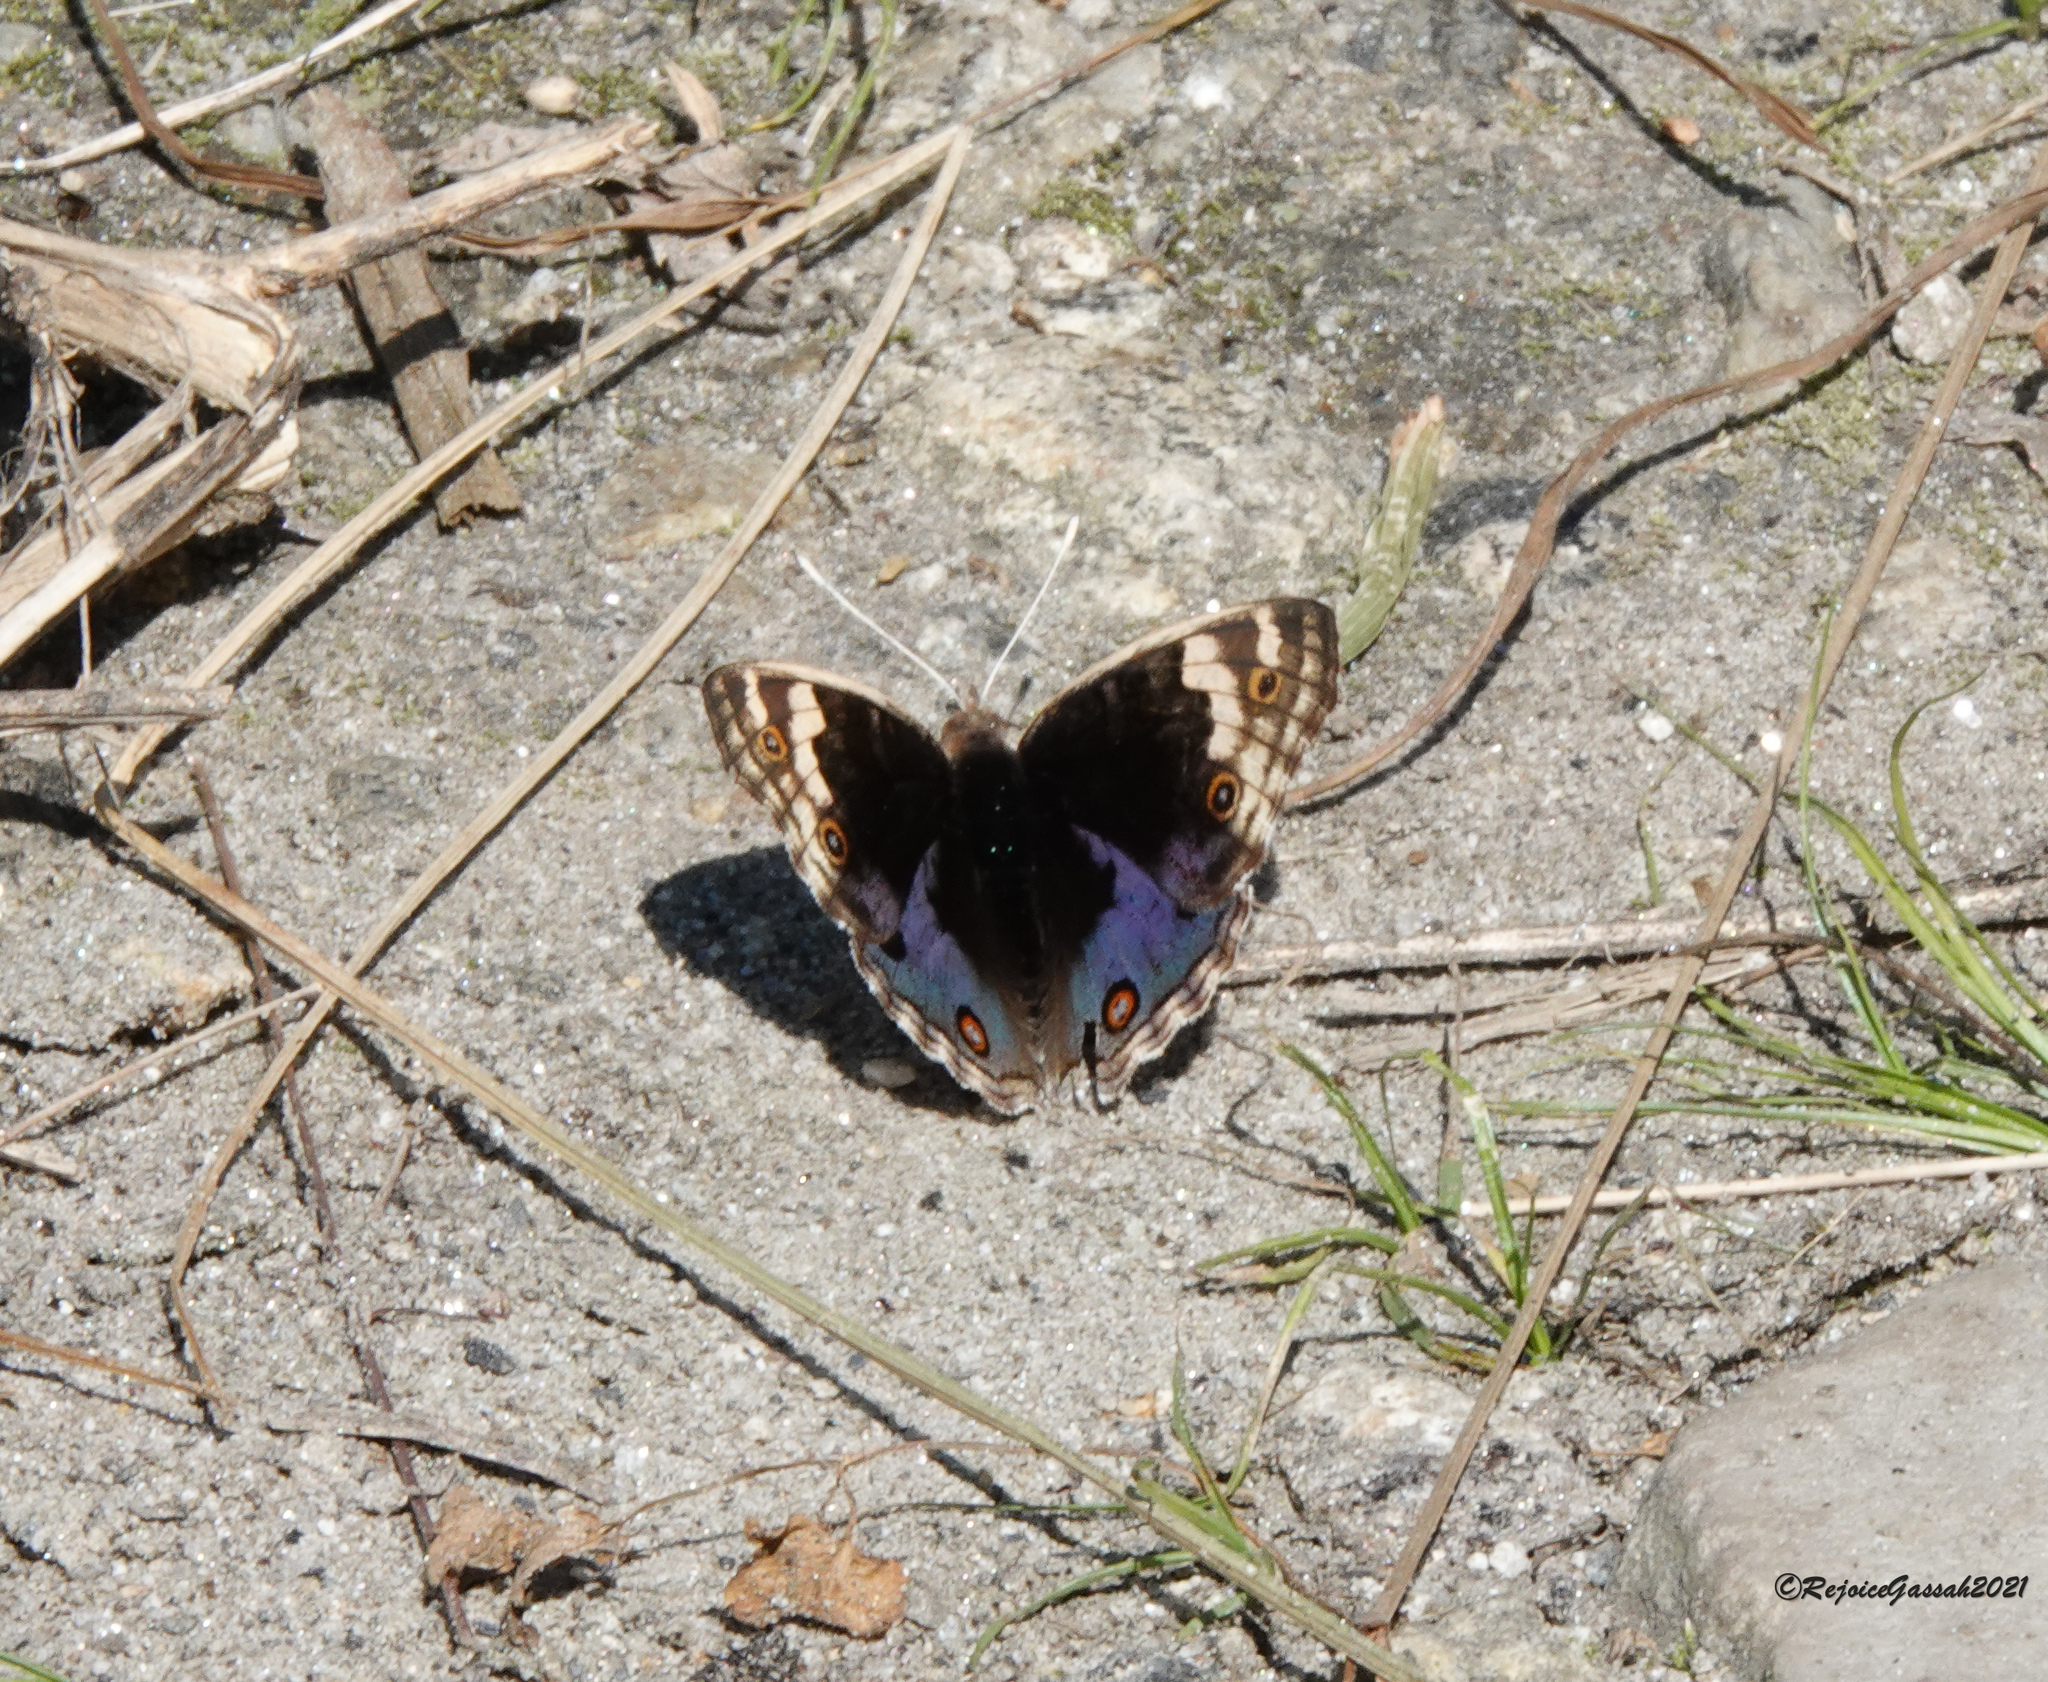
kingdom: Animalia
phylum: Arthropoda
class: Insecta
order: Lepidoptera
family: Nymphalidae
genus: Junonia
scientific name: Junonia orithya
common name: Blue pansy
